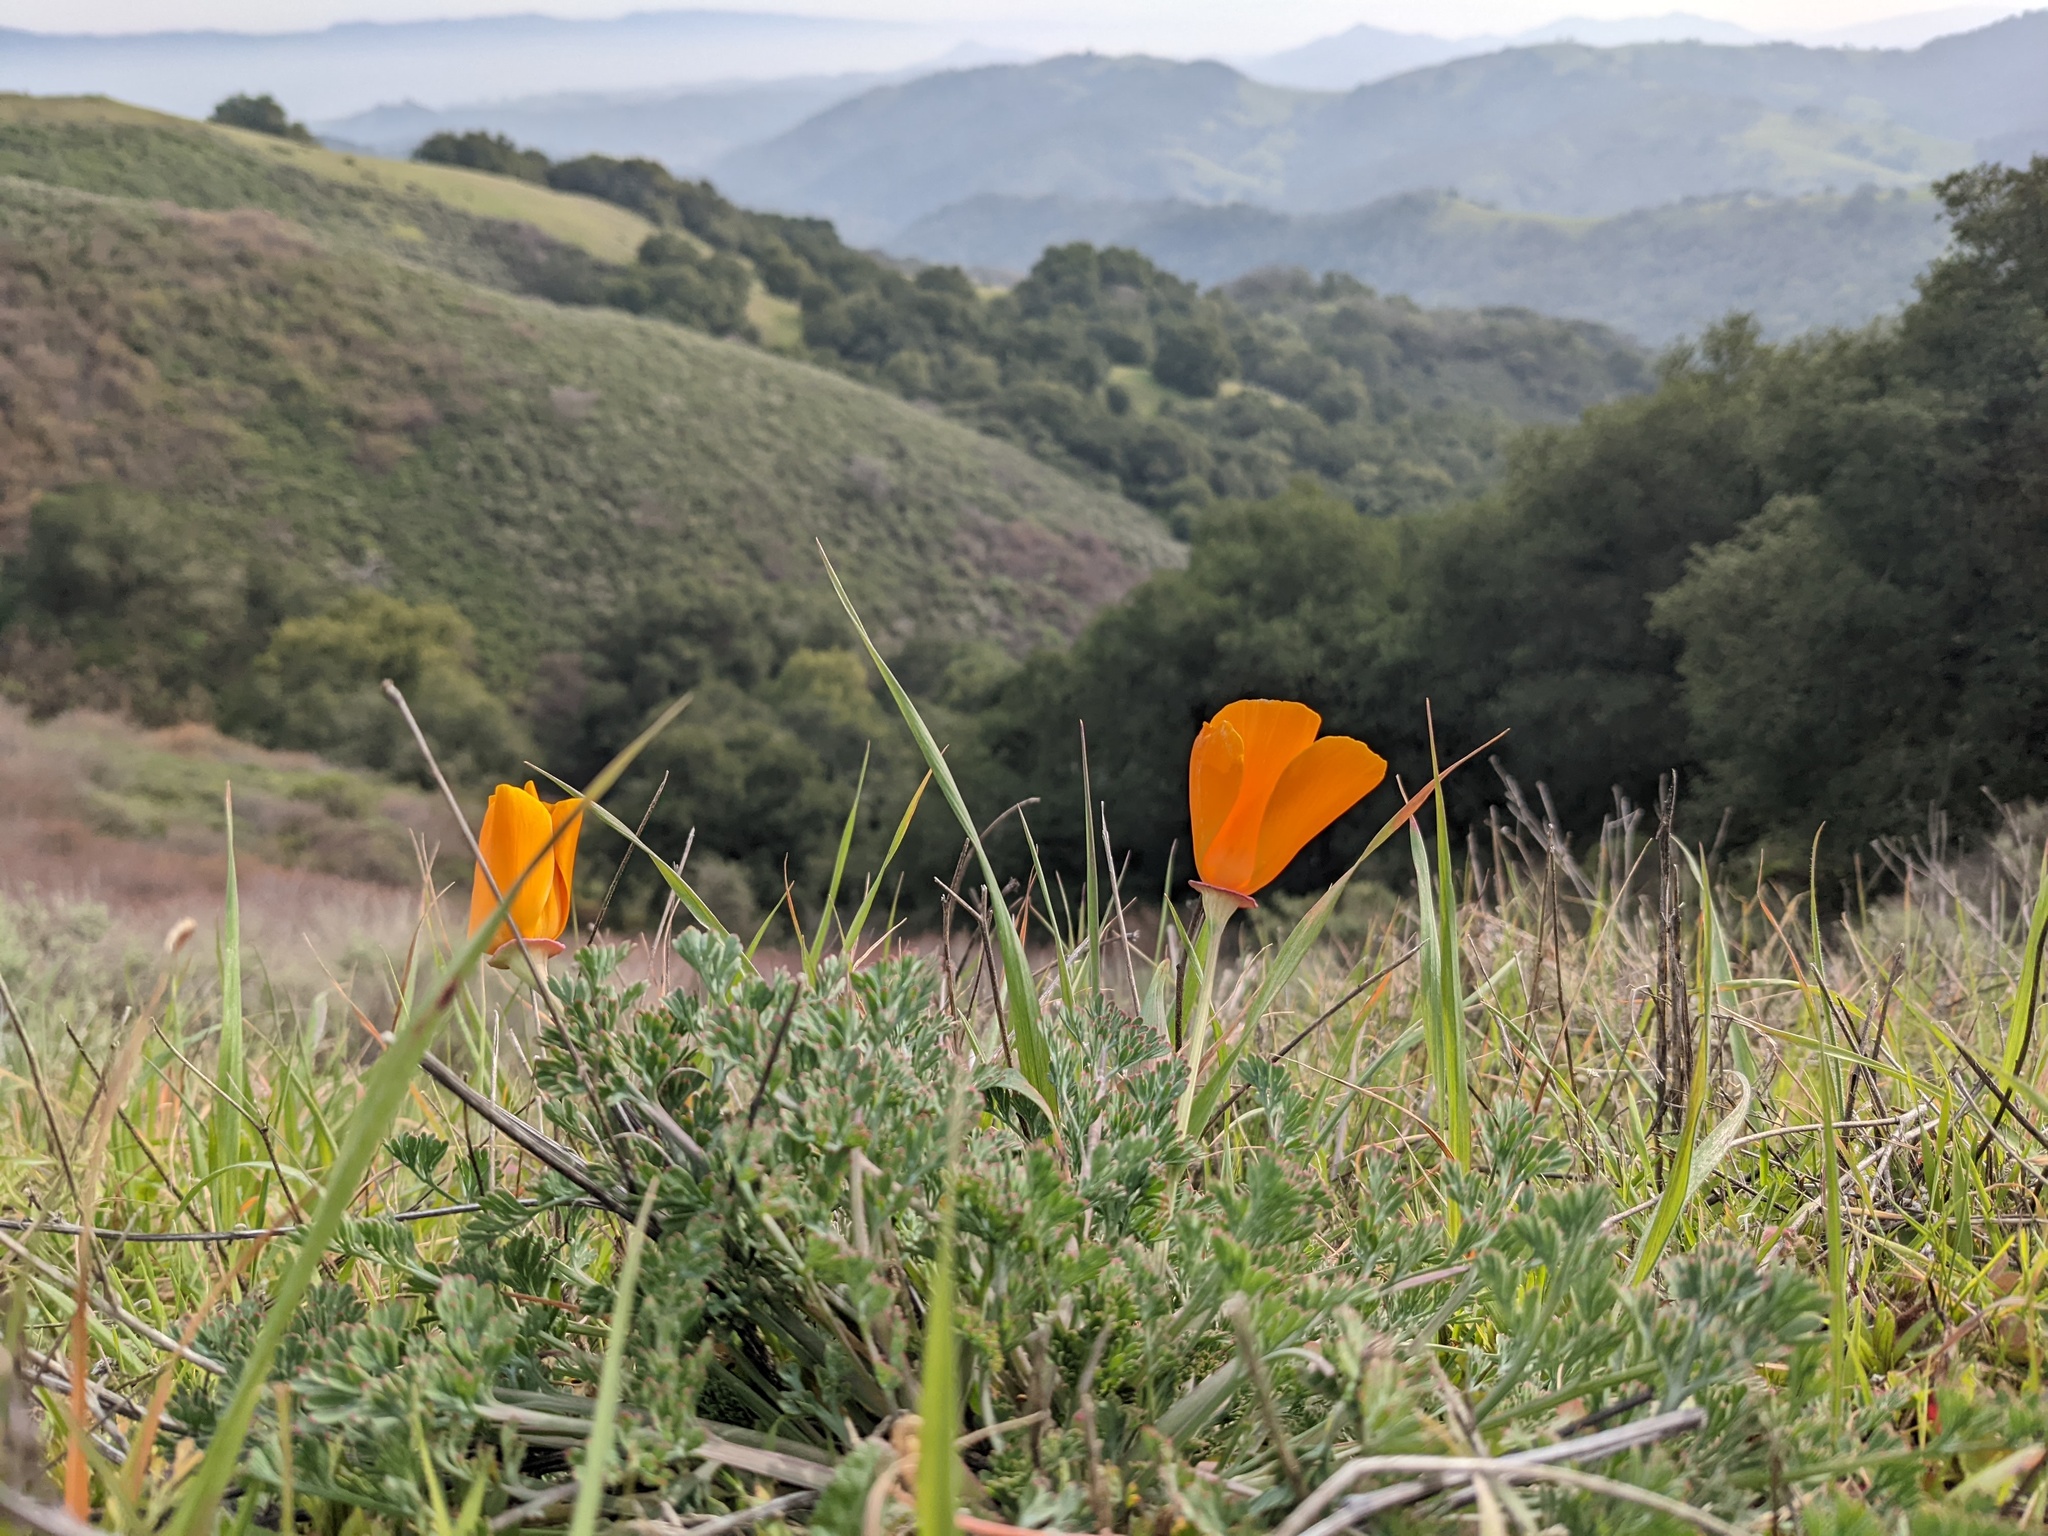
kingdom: Plantae
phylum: Tracheophyta
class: Magnoliopsida
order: Ranunculales
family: Papaveraceae
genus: Eschscholzia
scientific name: Eschscholzia californica
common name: California poppy
